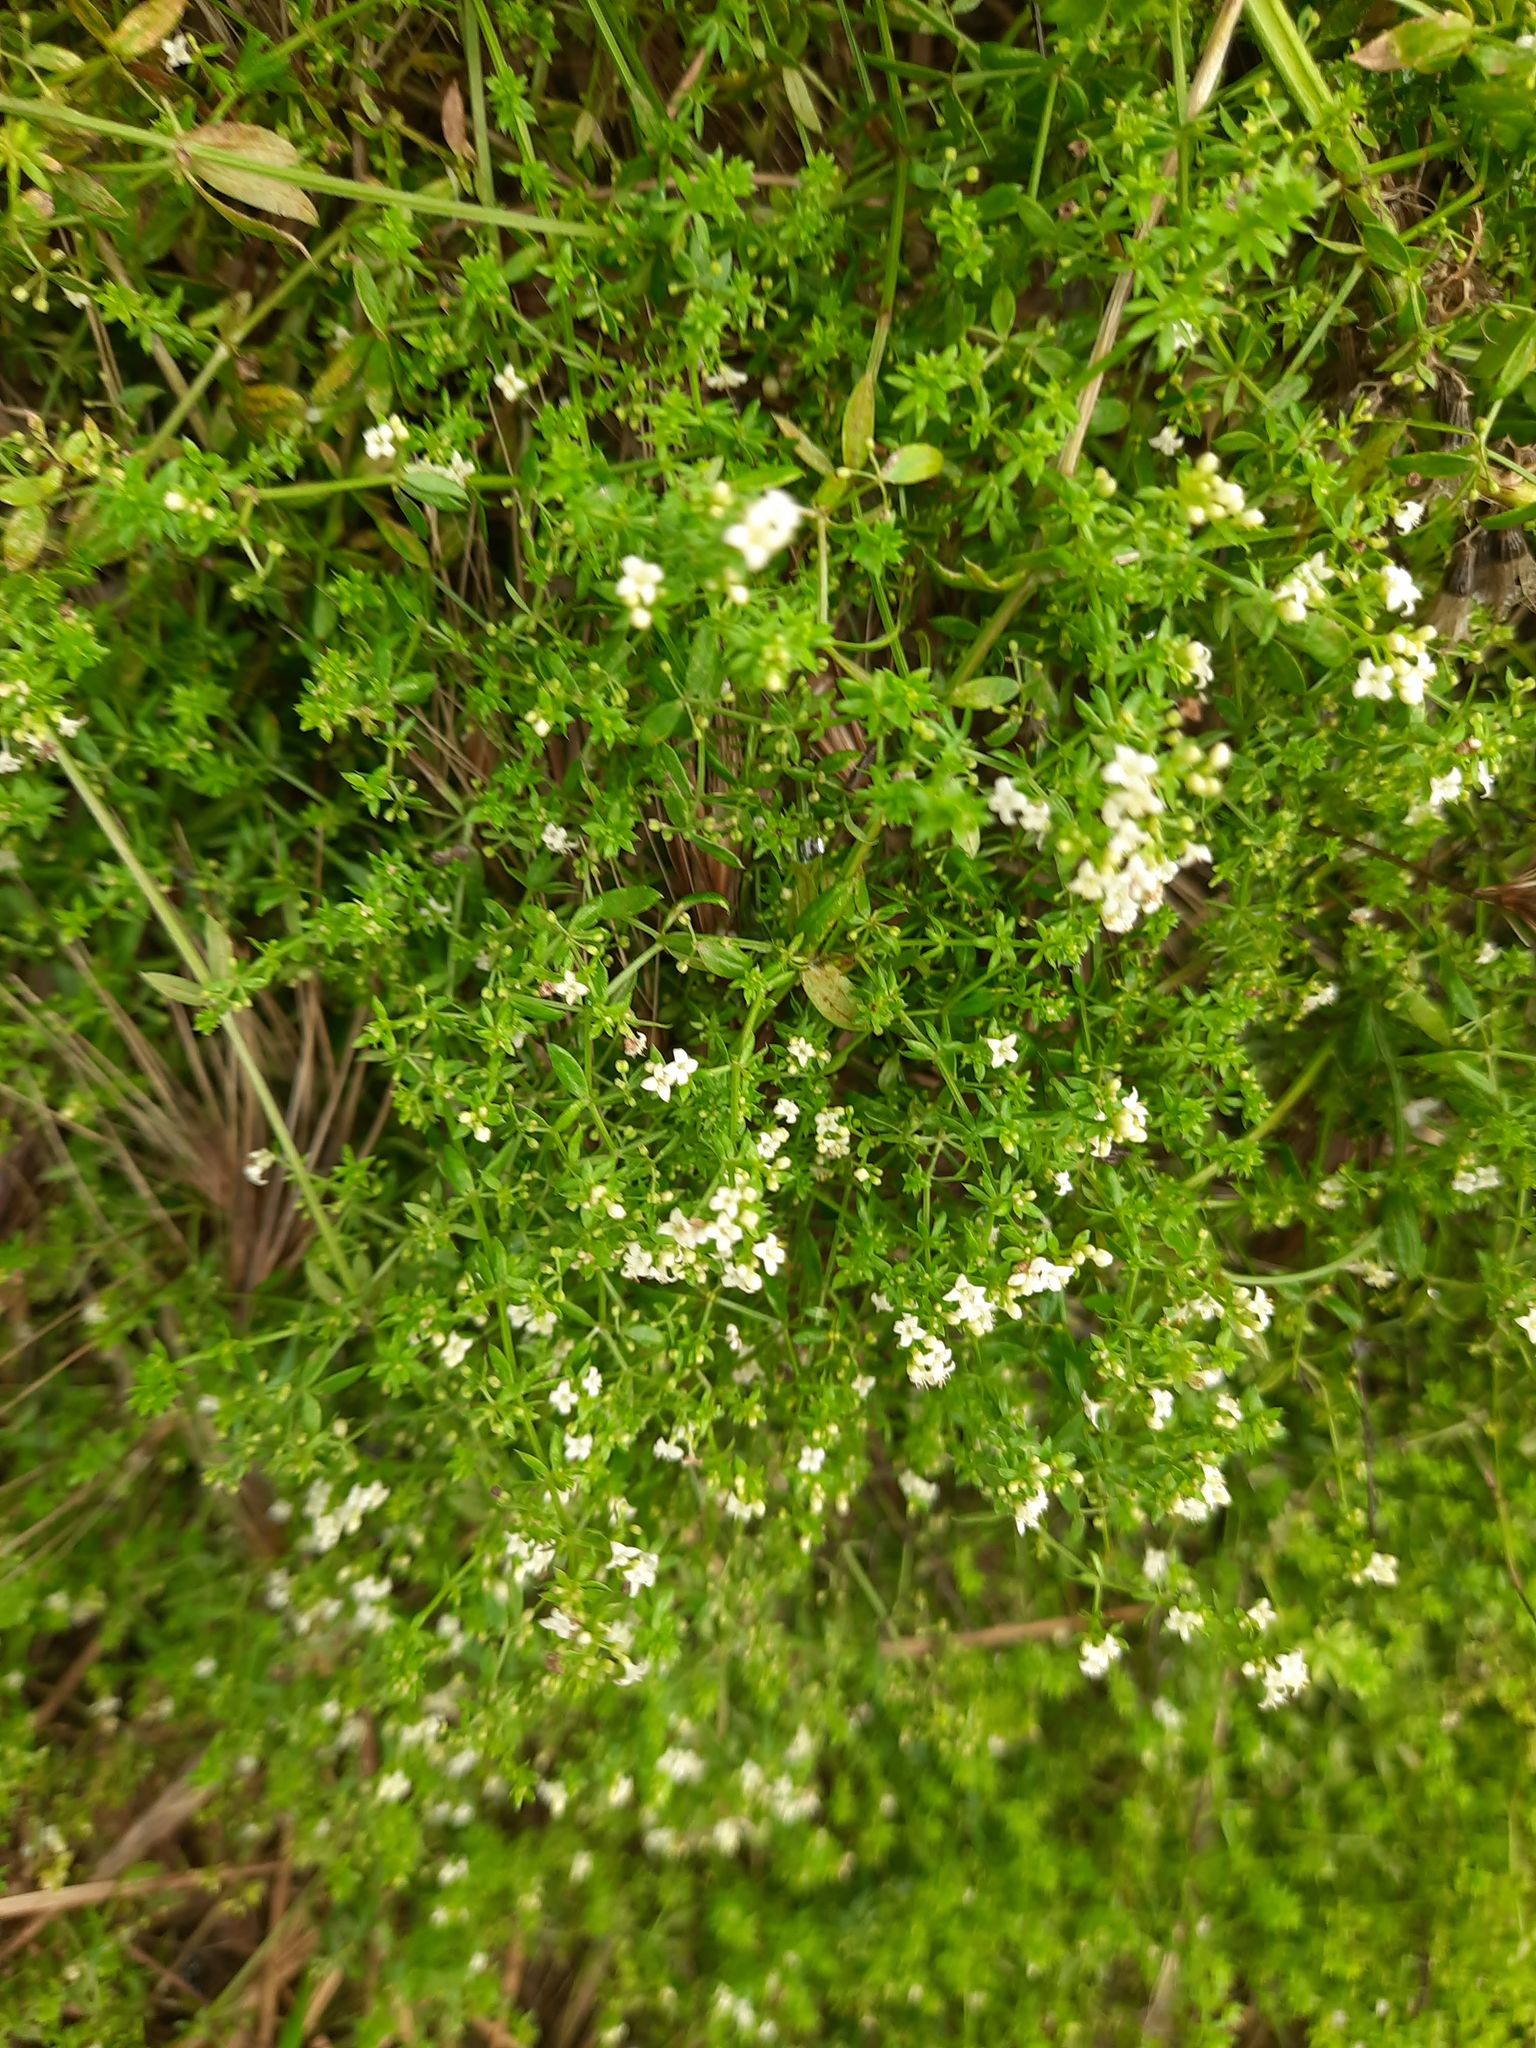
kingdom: Plantae
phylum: Tracheophyta
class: Magnoliopsida
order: Gentianales
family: Rubiaceae
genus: Galium
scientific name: Galium humifusum
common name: Spreading bedstraw
